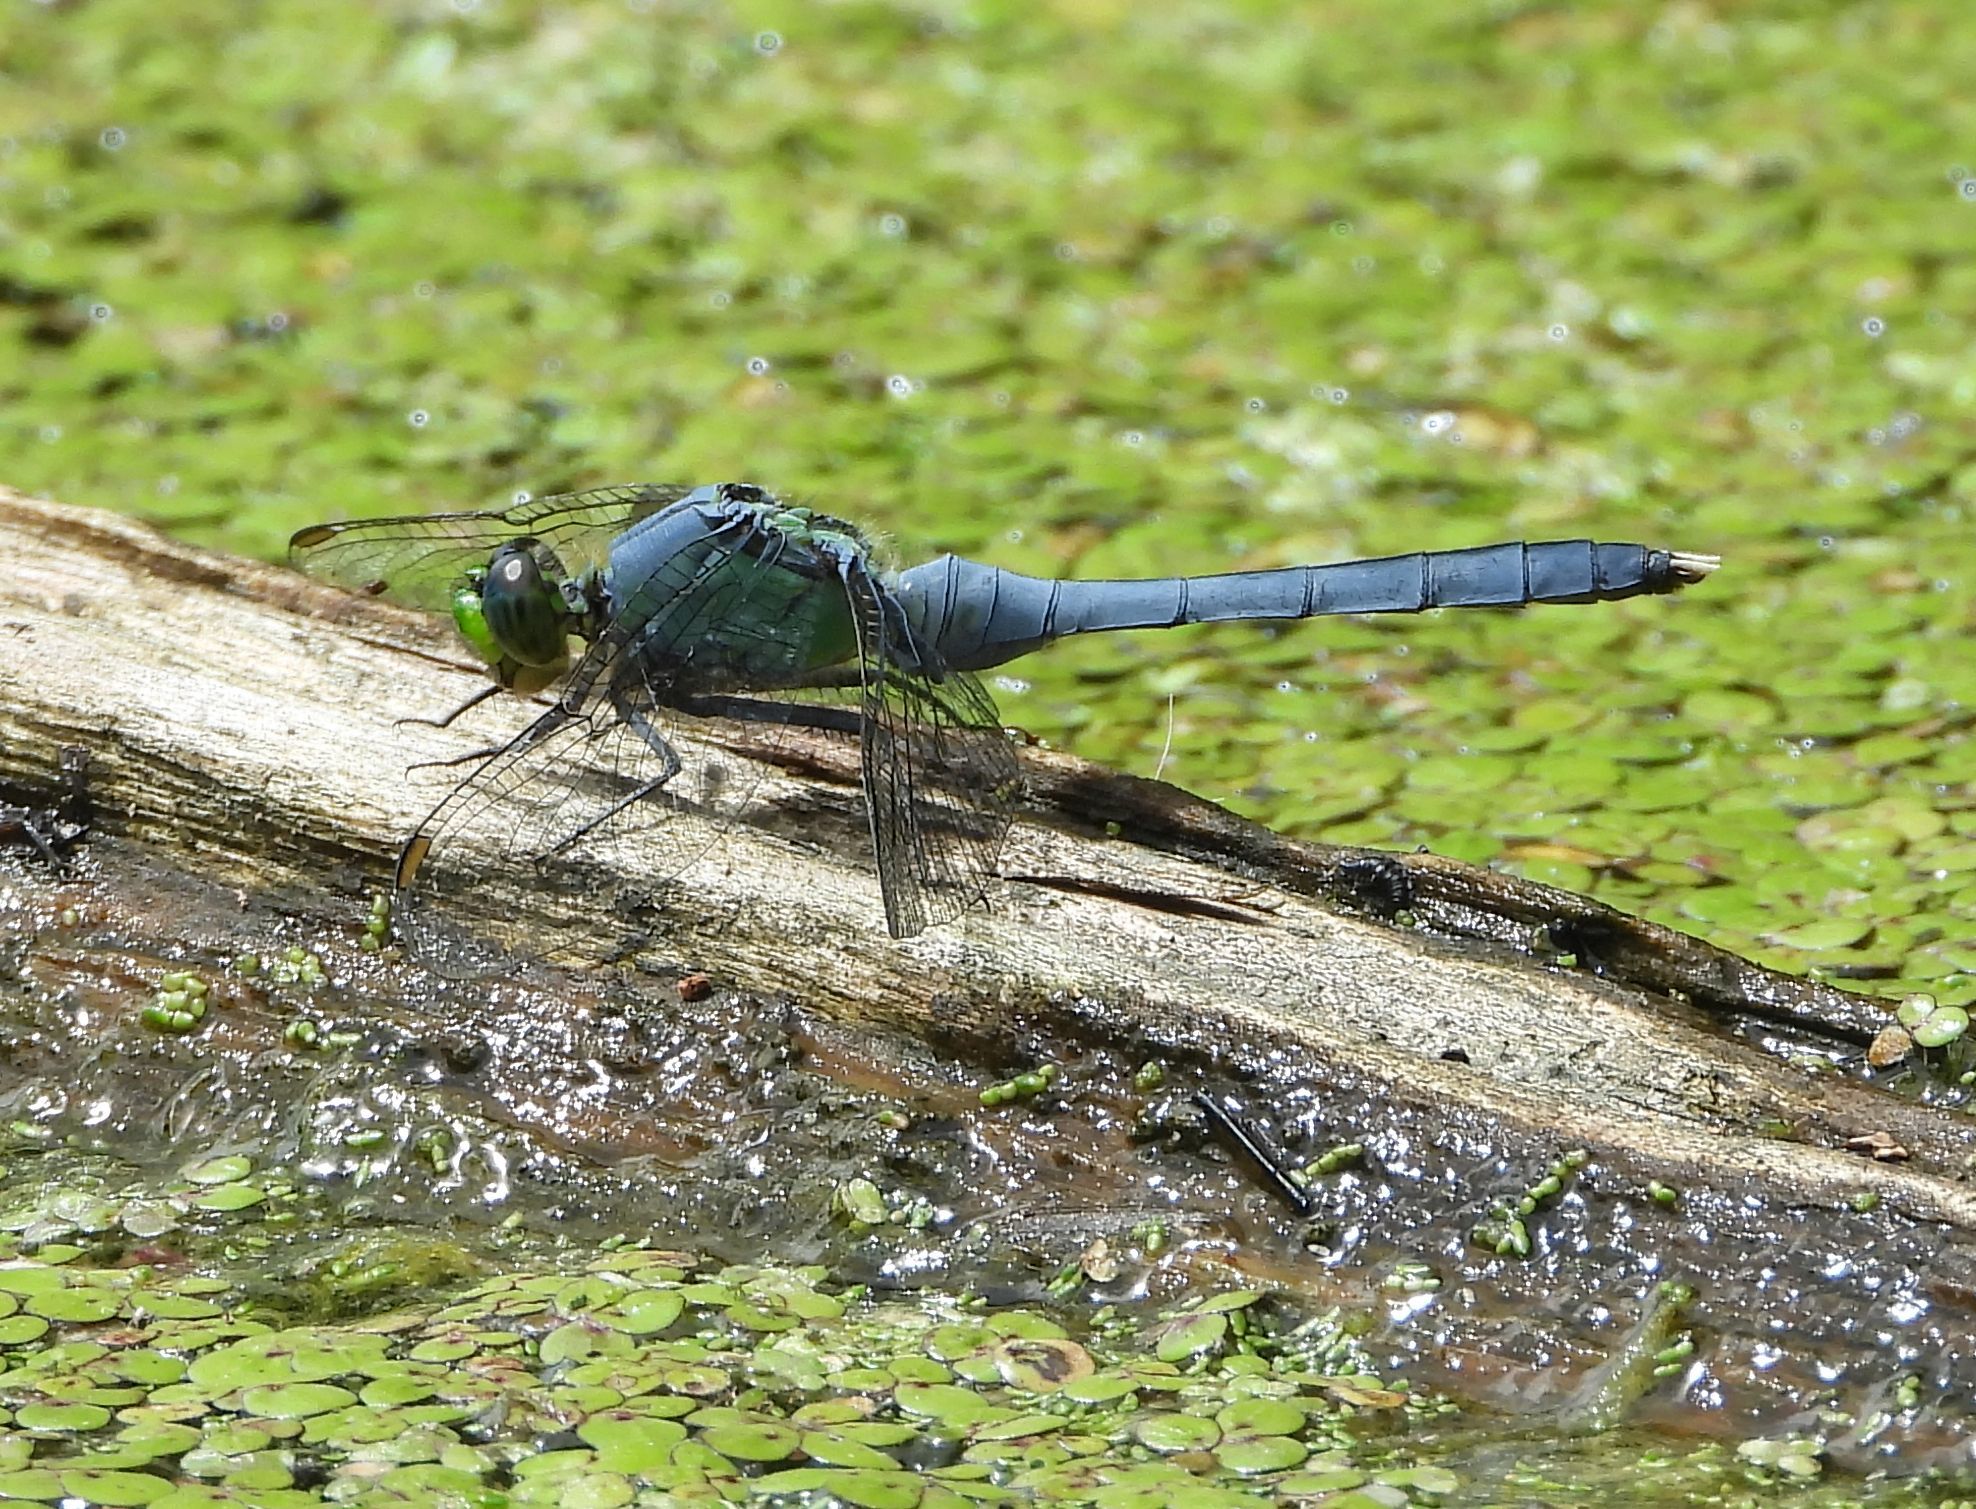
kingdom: Animalia
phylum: Arthropoda
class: Insecta
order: Odonata
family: Libellulidae
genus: Erythemis
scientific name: Erythemis simplicicollis
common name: Eastern pondhawk
